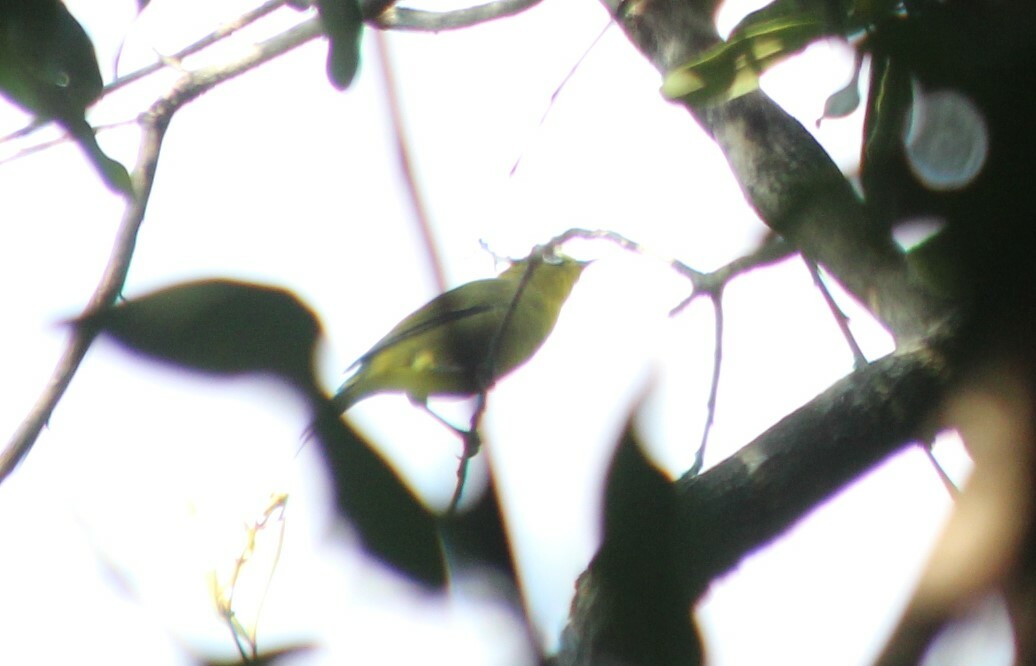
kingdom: Animalia
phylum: Chordata
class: Aves
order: Passeriformes
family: Zosteropidae
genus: Zosterops
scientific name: Zosterops virens
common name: Cape white-eye
